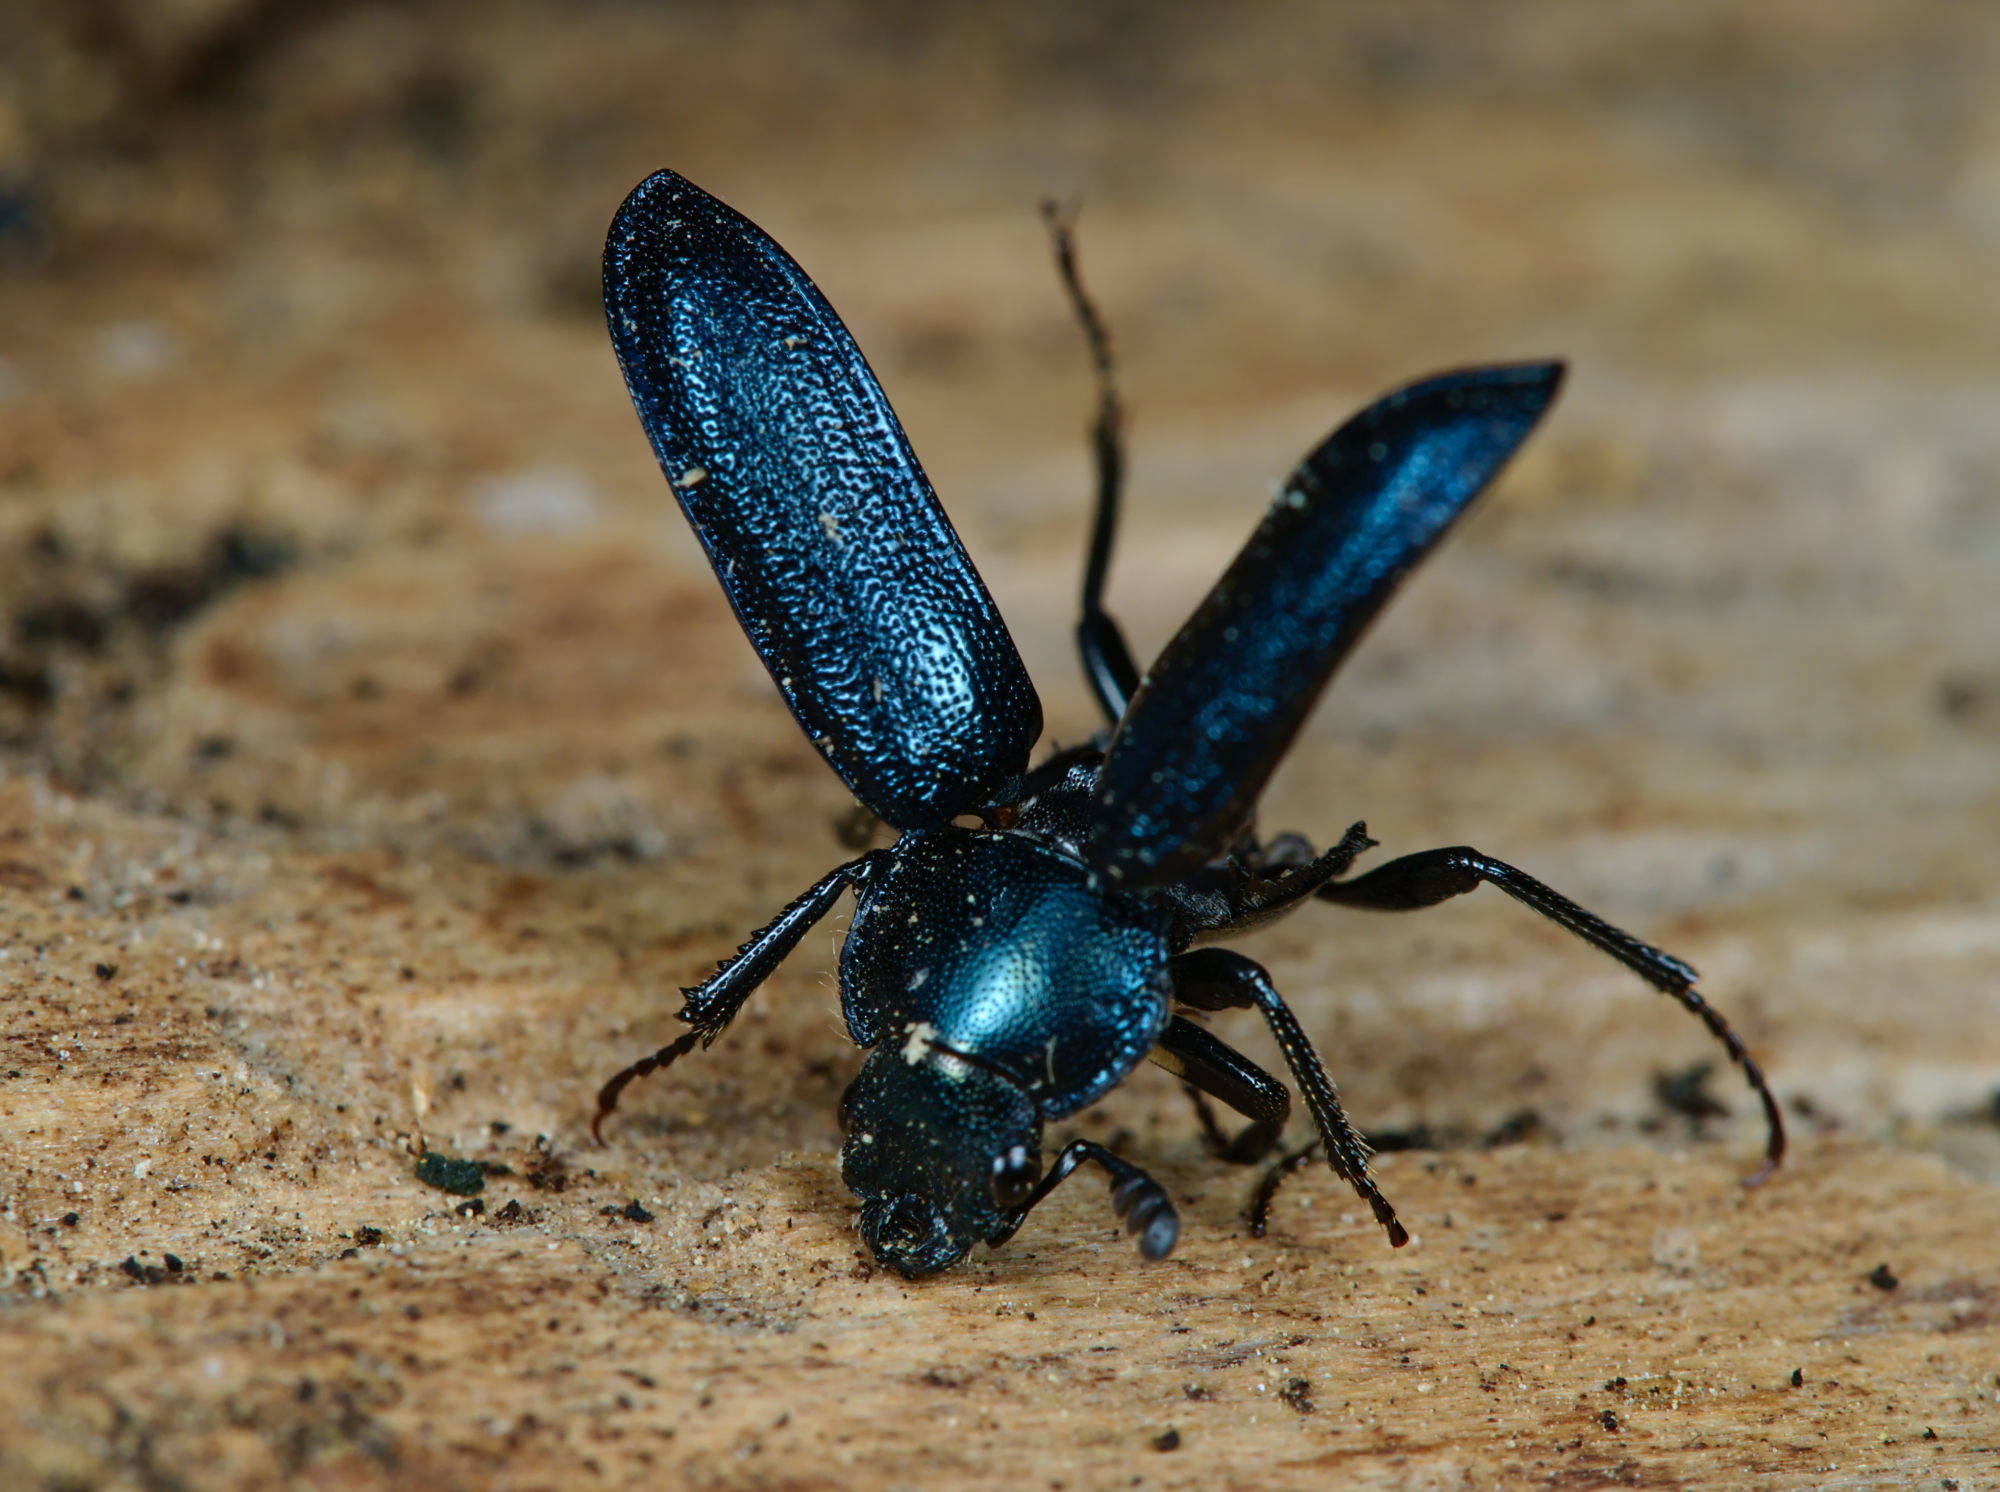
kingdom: Animalia
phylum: Arthropoda
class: Insecta
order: Coleoptera
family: Lucanidae
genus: Platycerus
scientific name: Platycerus caraboides
